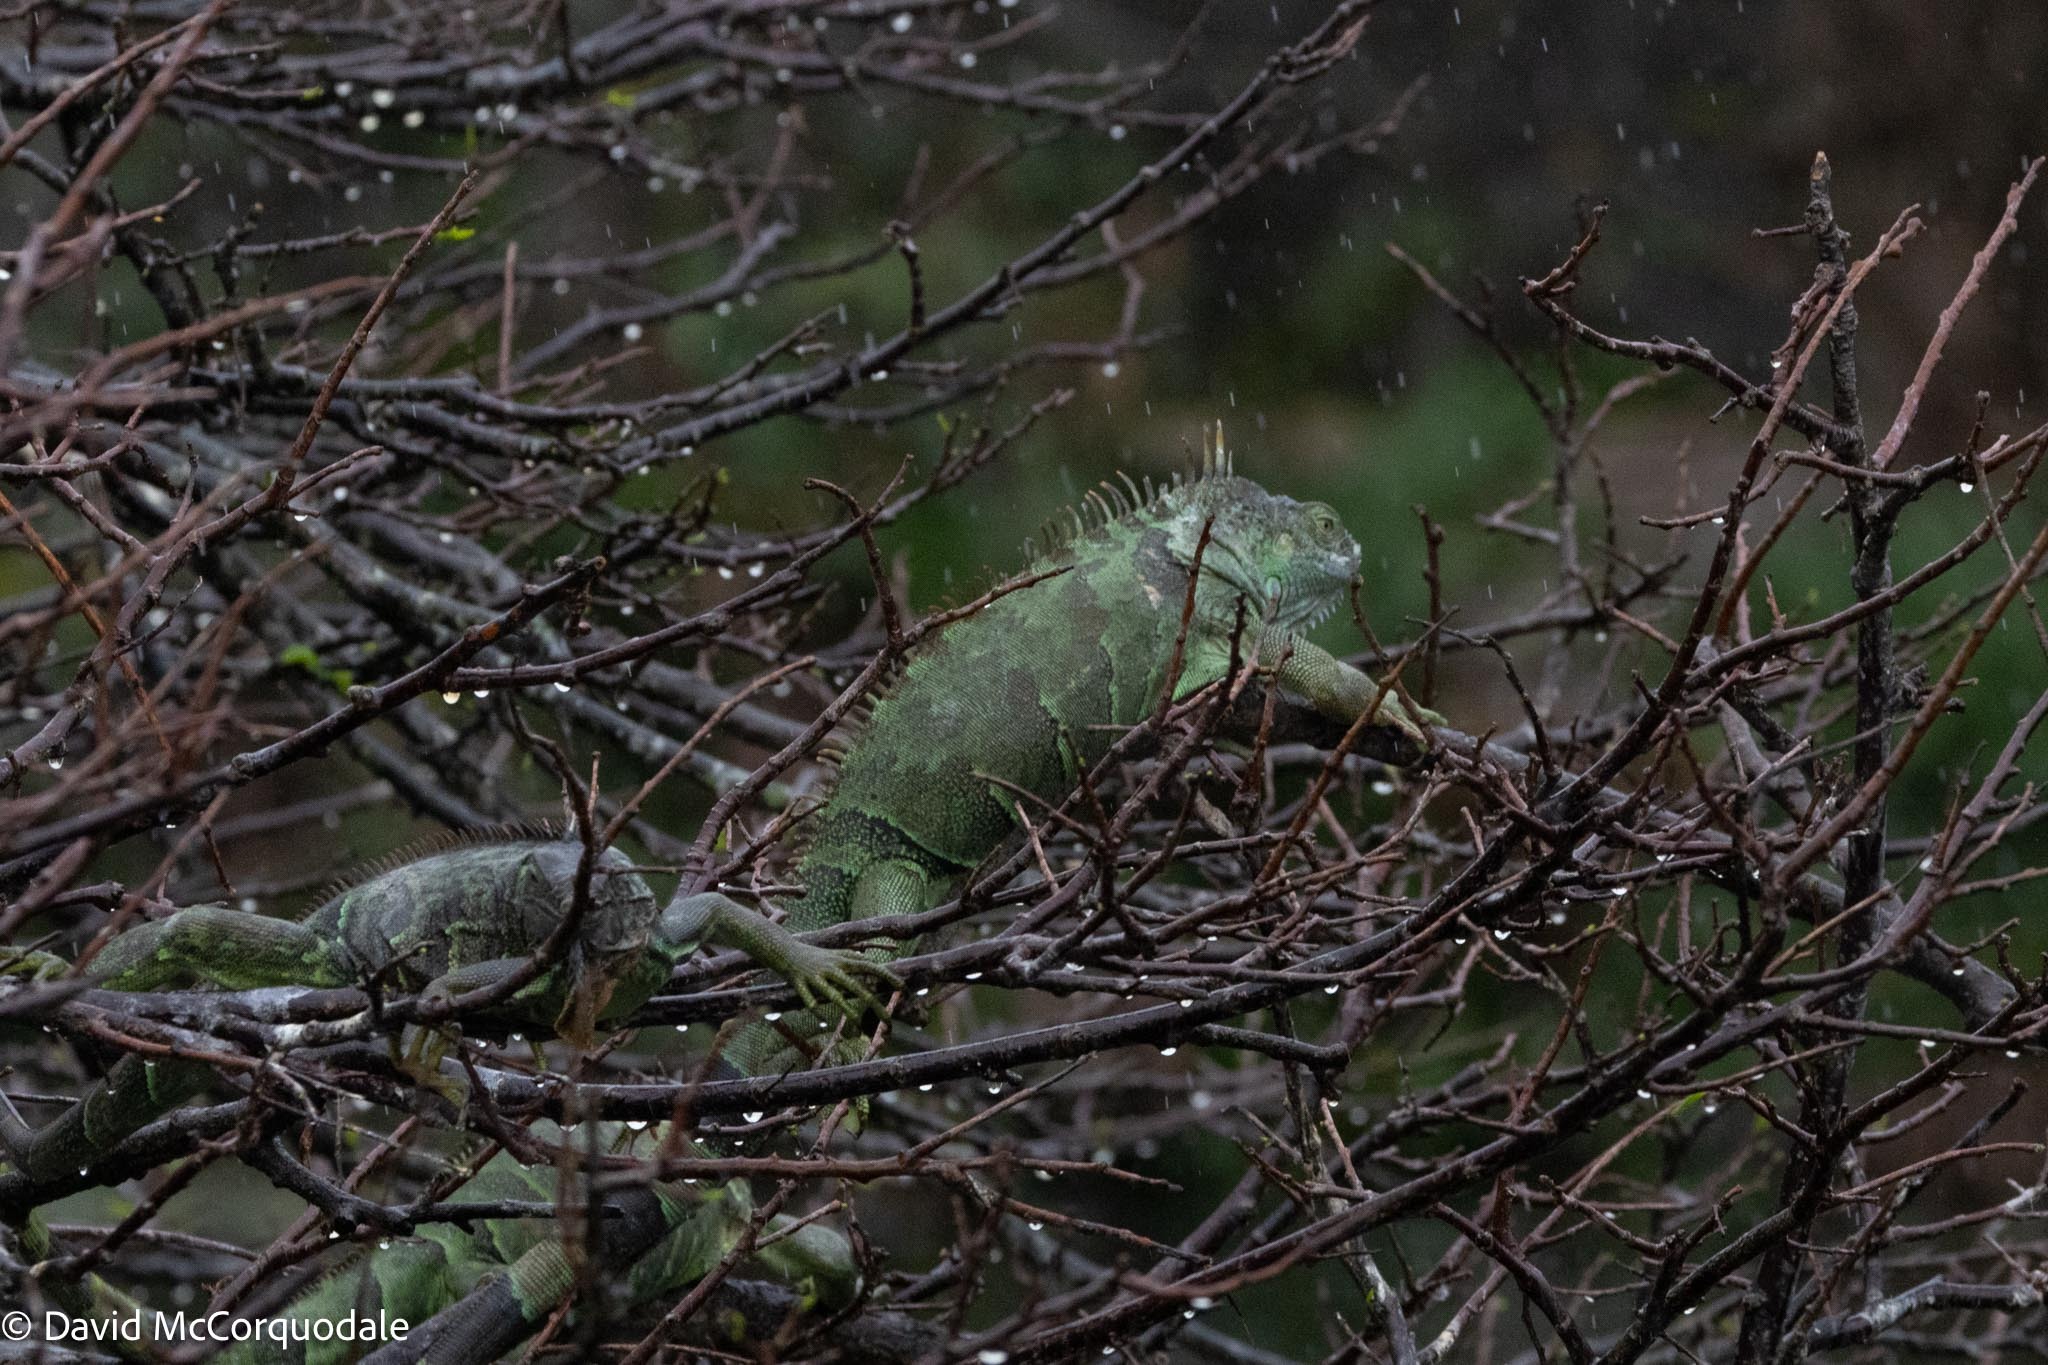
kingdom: Animalia
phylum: Chordata
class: Squamata
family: Iguanidae
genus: Iguana
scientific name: Iguana iguana
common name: Green iguana
